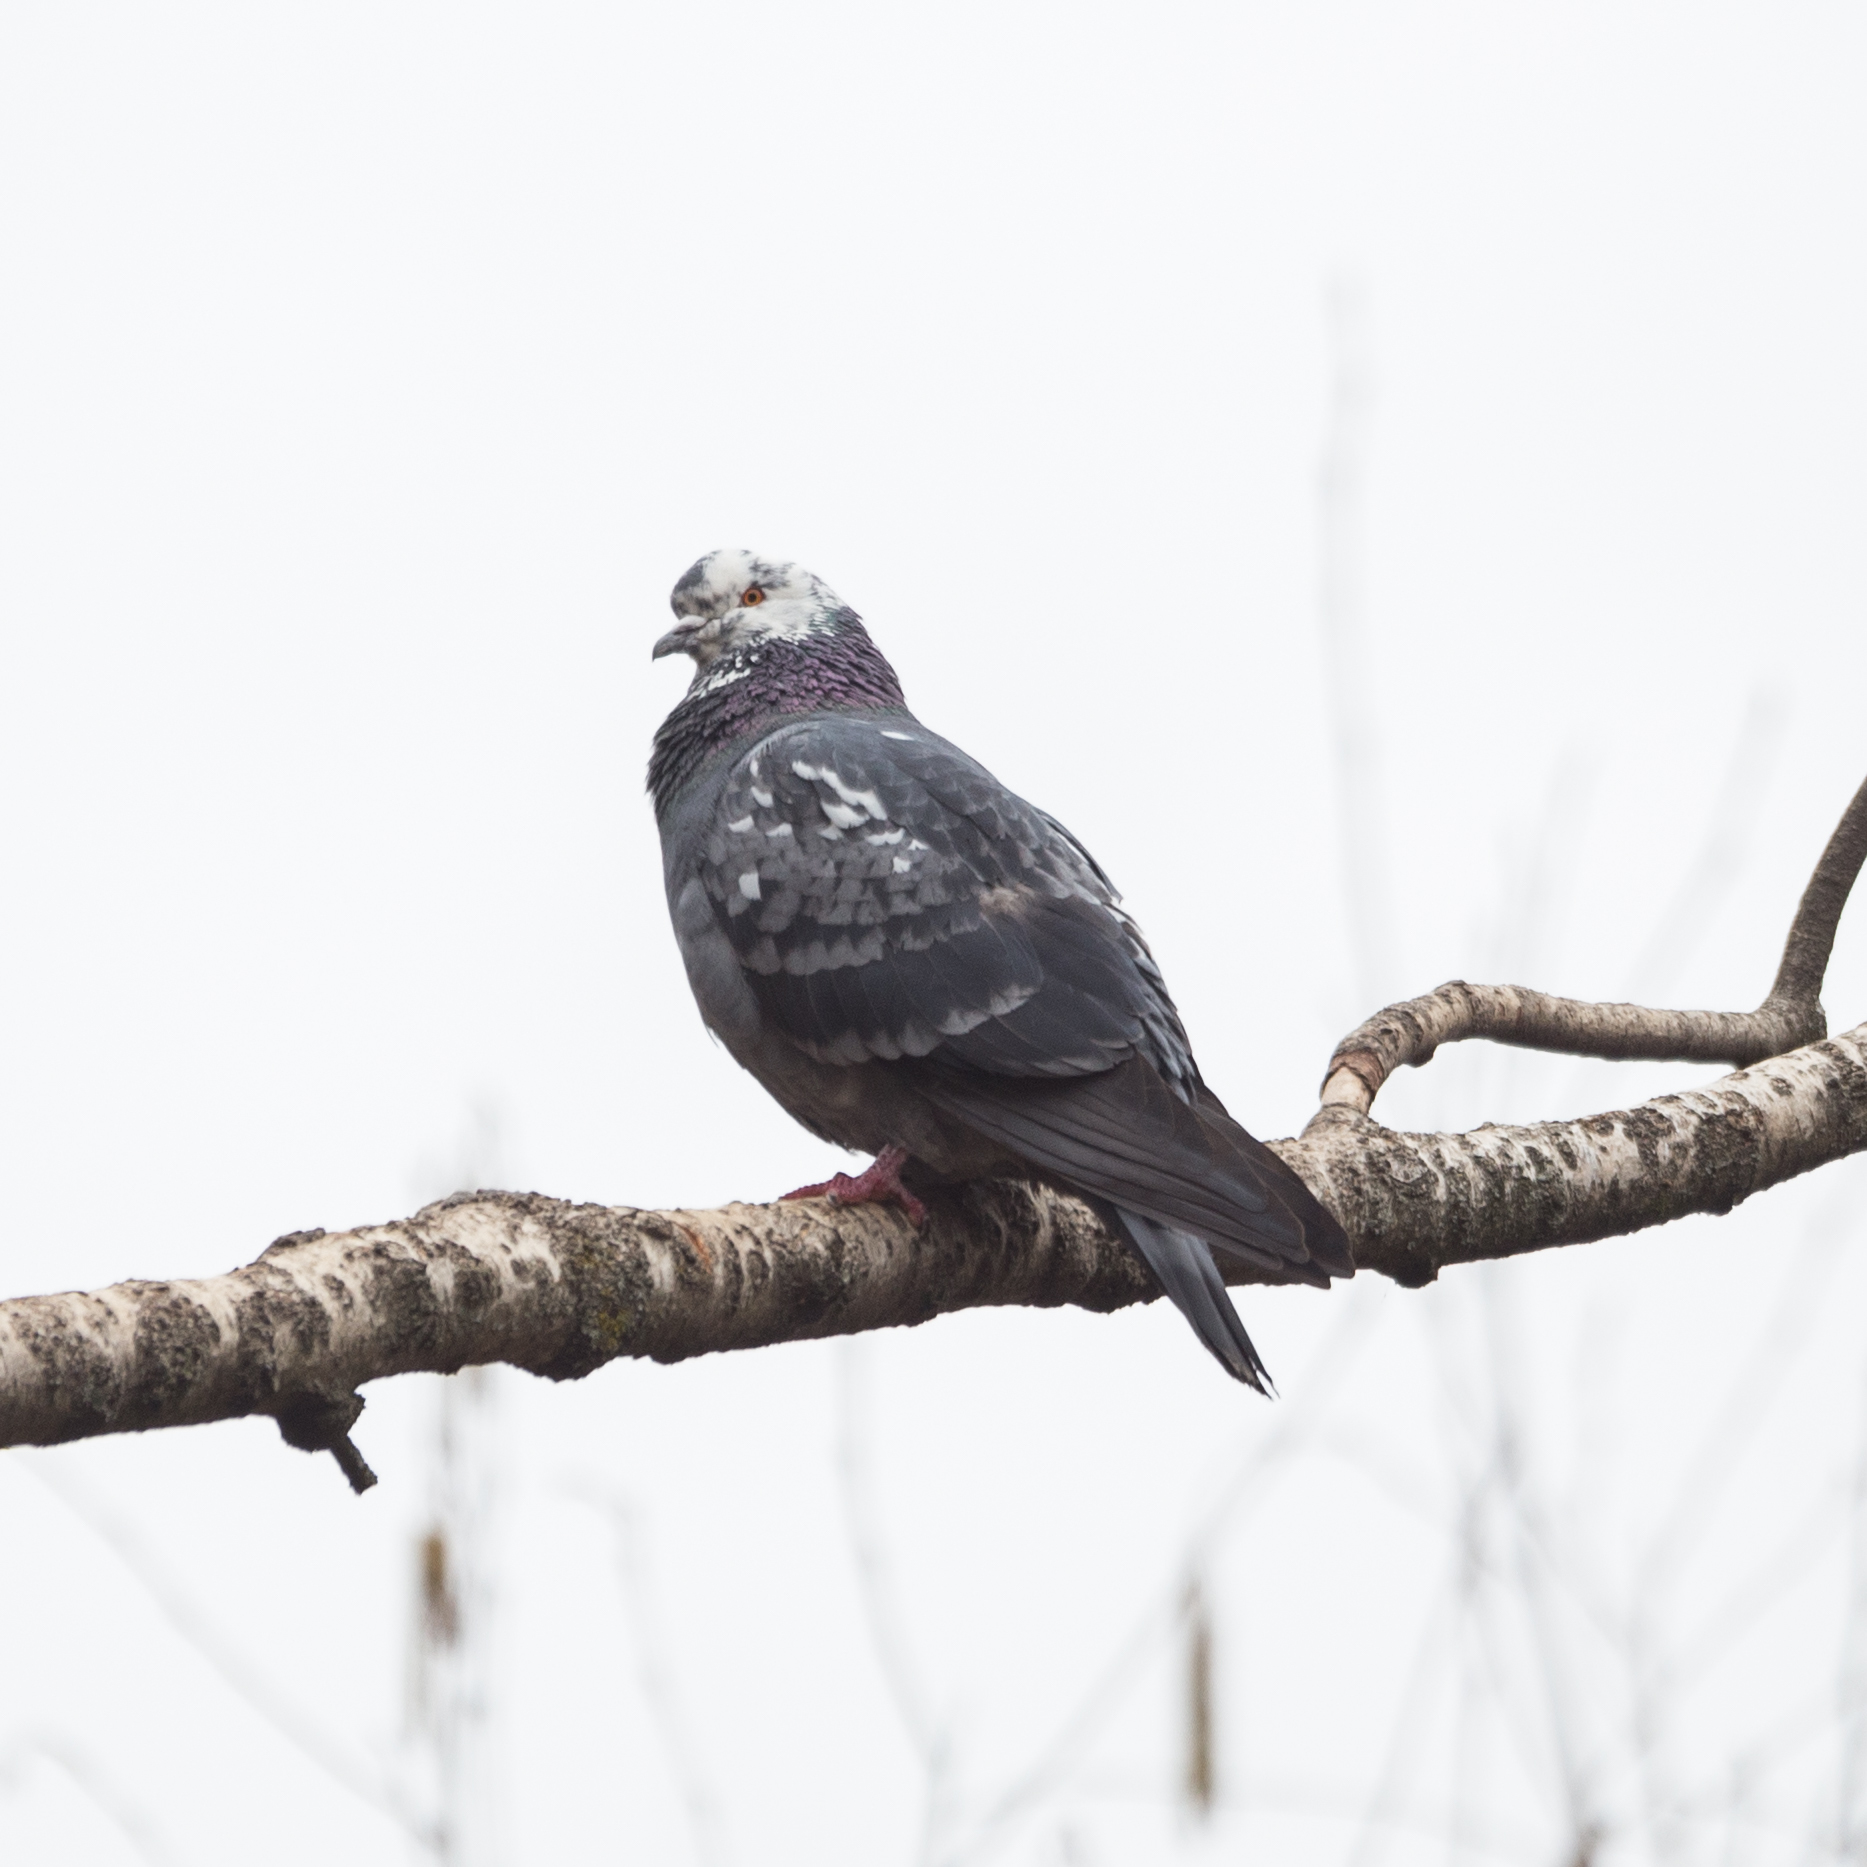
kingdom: Animalia
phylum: Chordata
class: Aves
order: Columbiformes
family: Columbidae
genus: Columba
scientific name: Columba livia
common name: Rock pigeon
